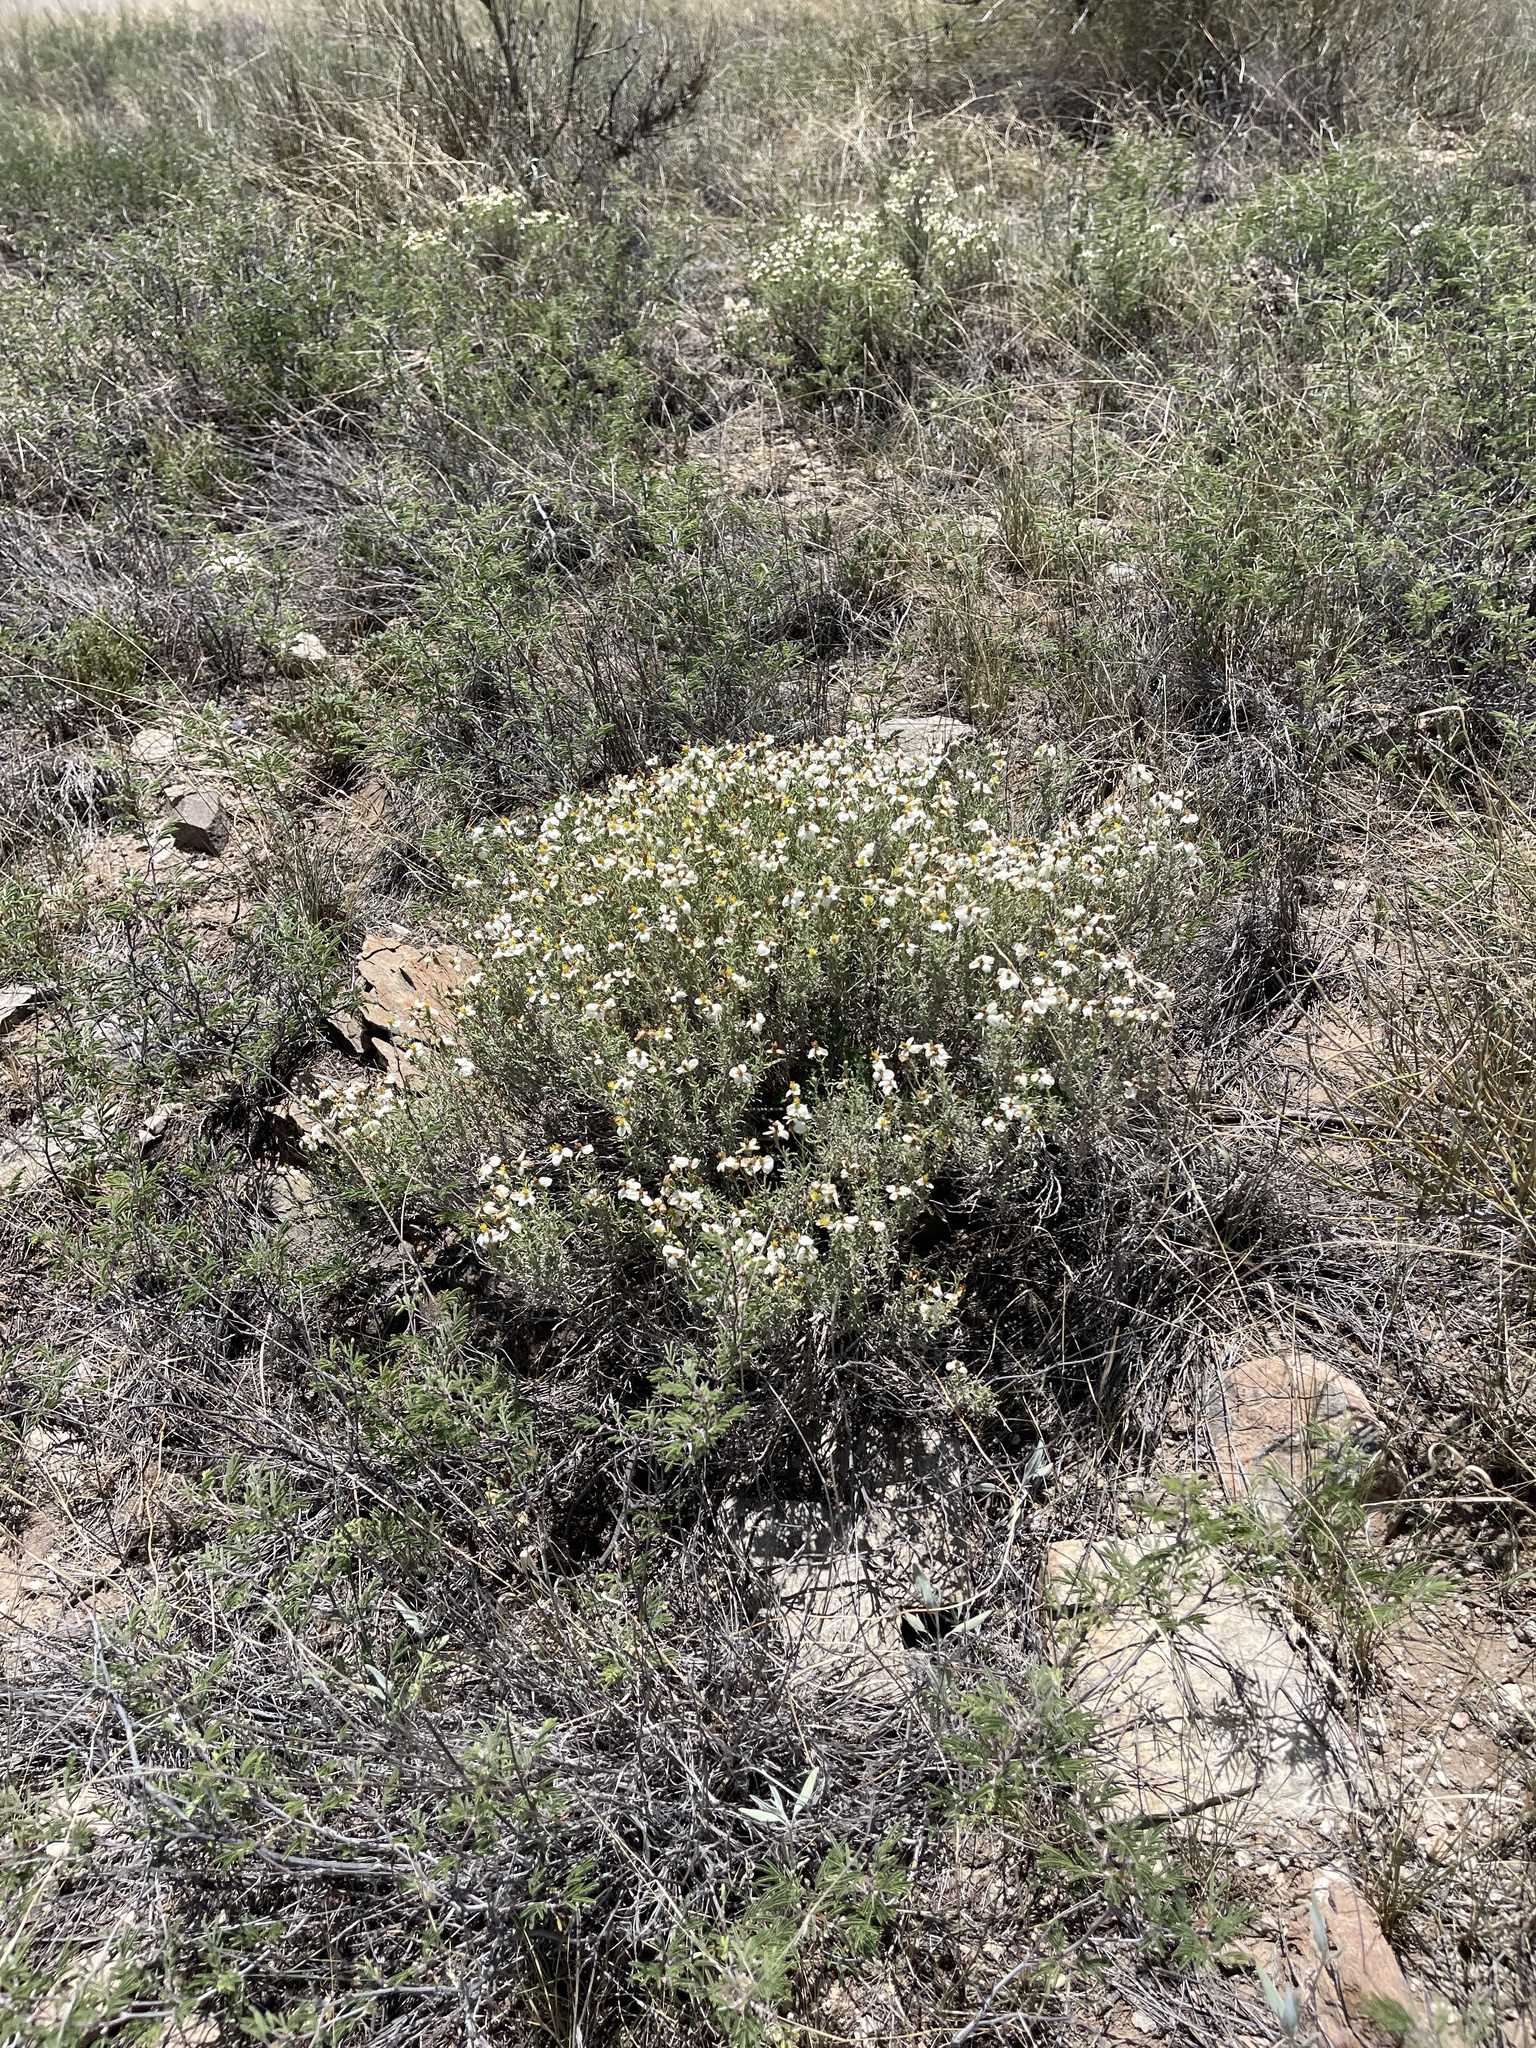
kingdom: Plantae
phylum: Tracheophyta
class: Magnoliopsida
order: Asterales
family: Asteraceae
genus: Zinnia
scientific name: Zinnia acerosa
